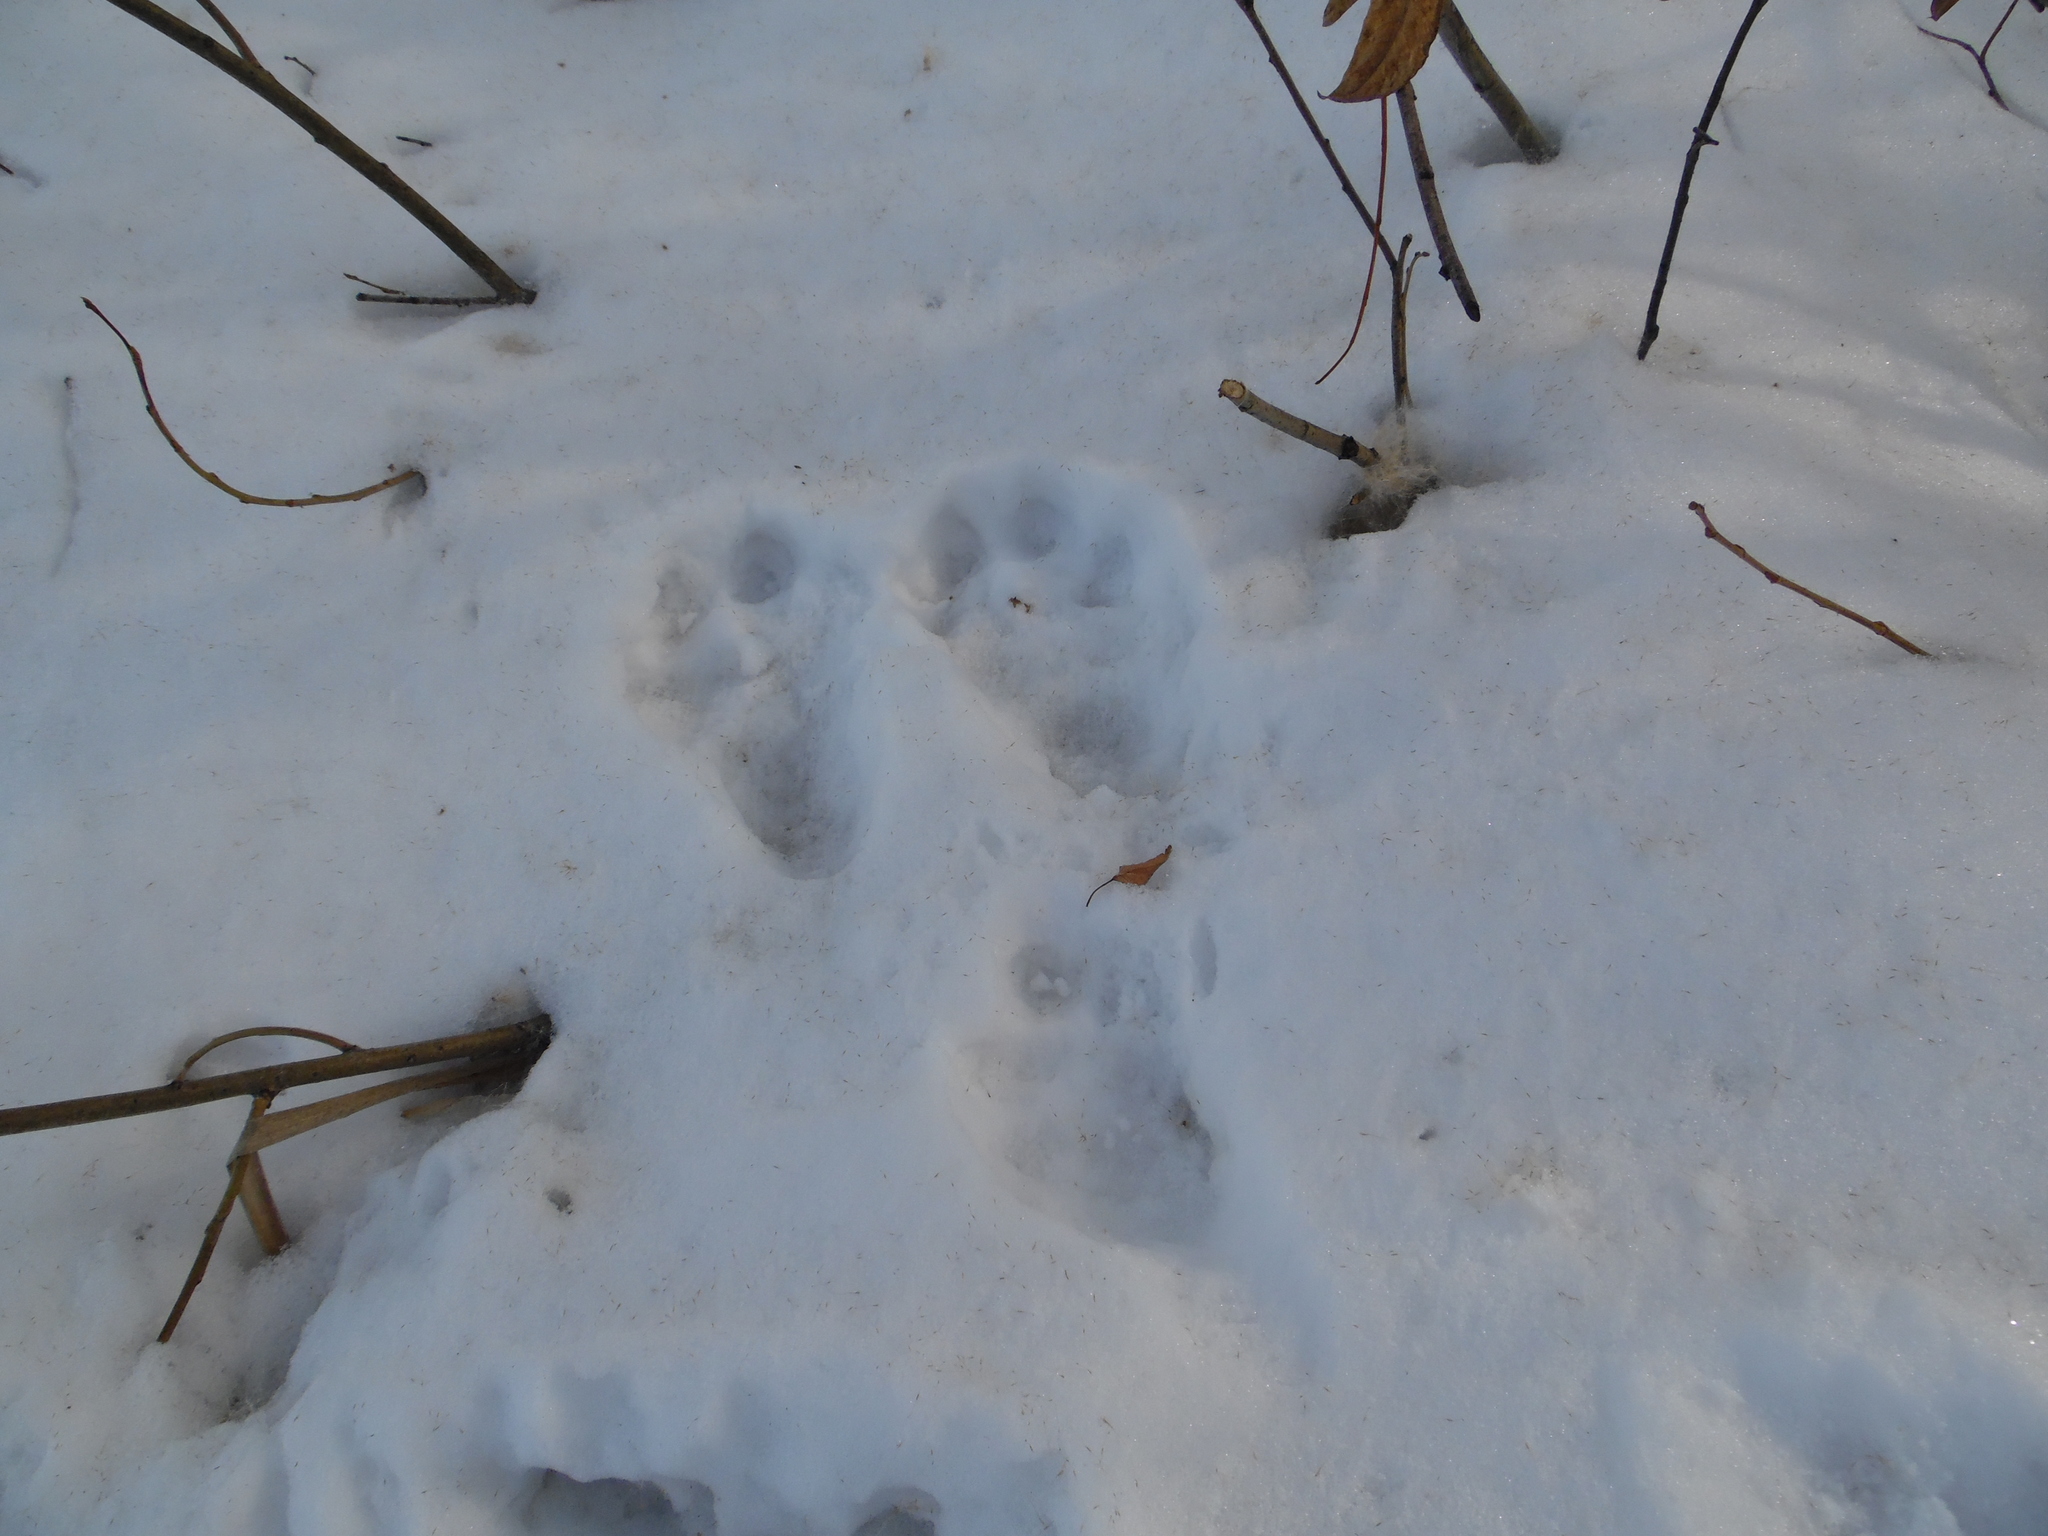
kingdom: Animalia
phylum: Chordata
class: Mammalia
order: Lagomorpha
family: Leporidae
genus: Lepus
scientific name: Lepus timidus
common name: Mountain hare
